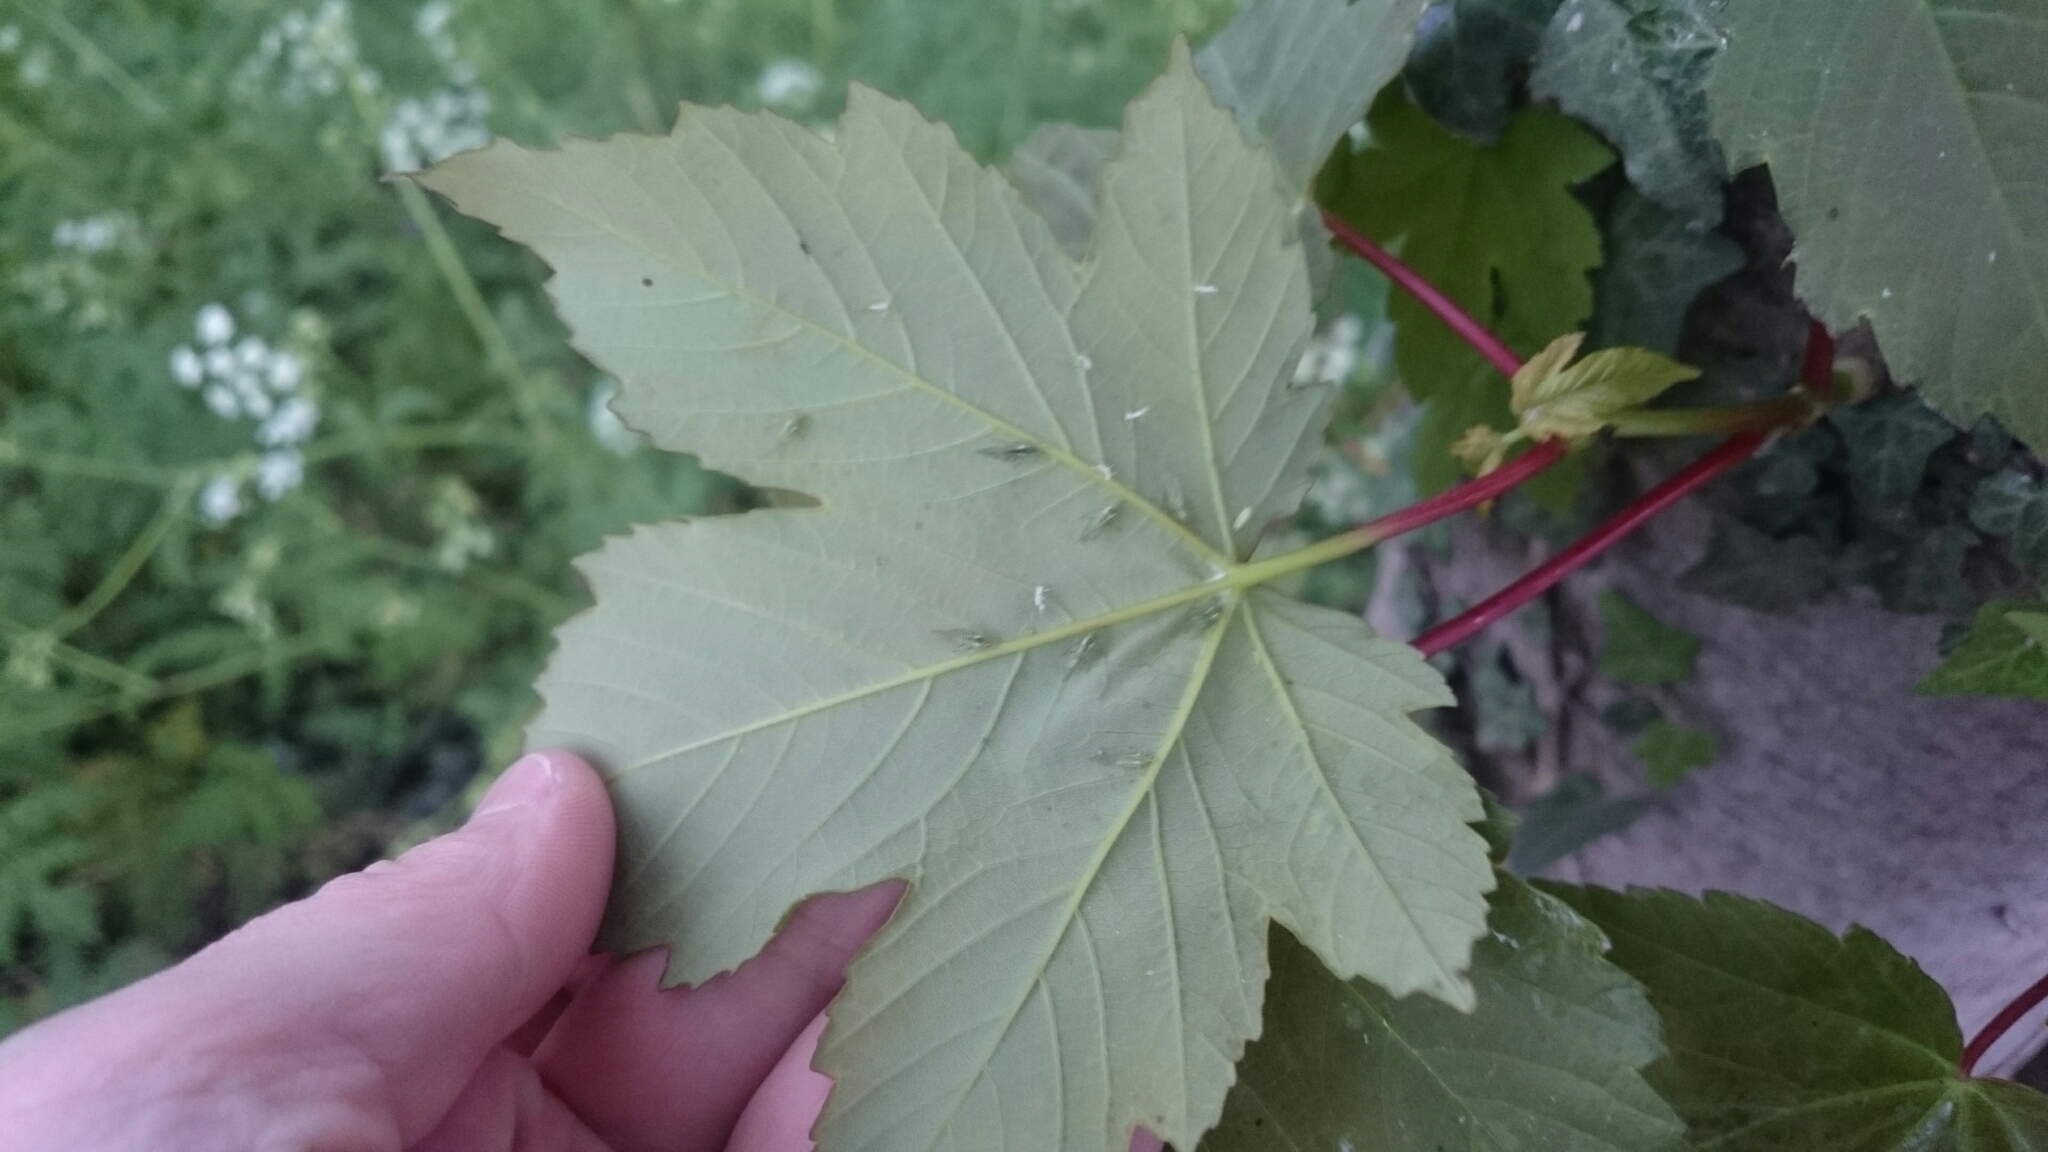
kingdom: Plantae
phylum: Tracheophyta
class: Magnoliopsida
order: Sapindales
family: Sapindaceae
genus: Acer
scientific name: Acer pseudoplatanus
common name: Sycamore
